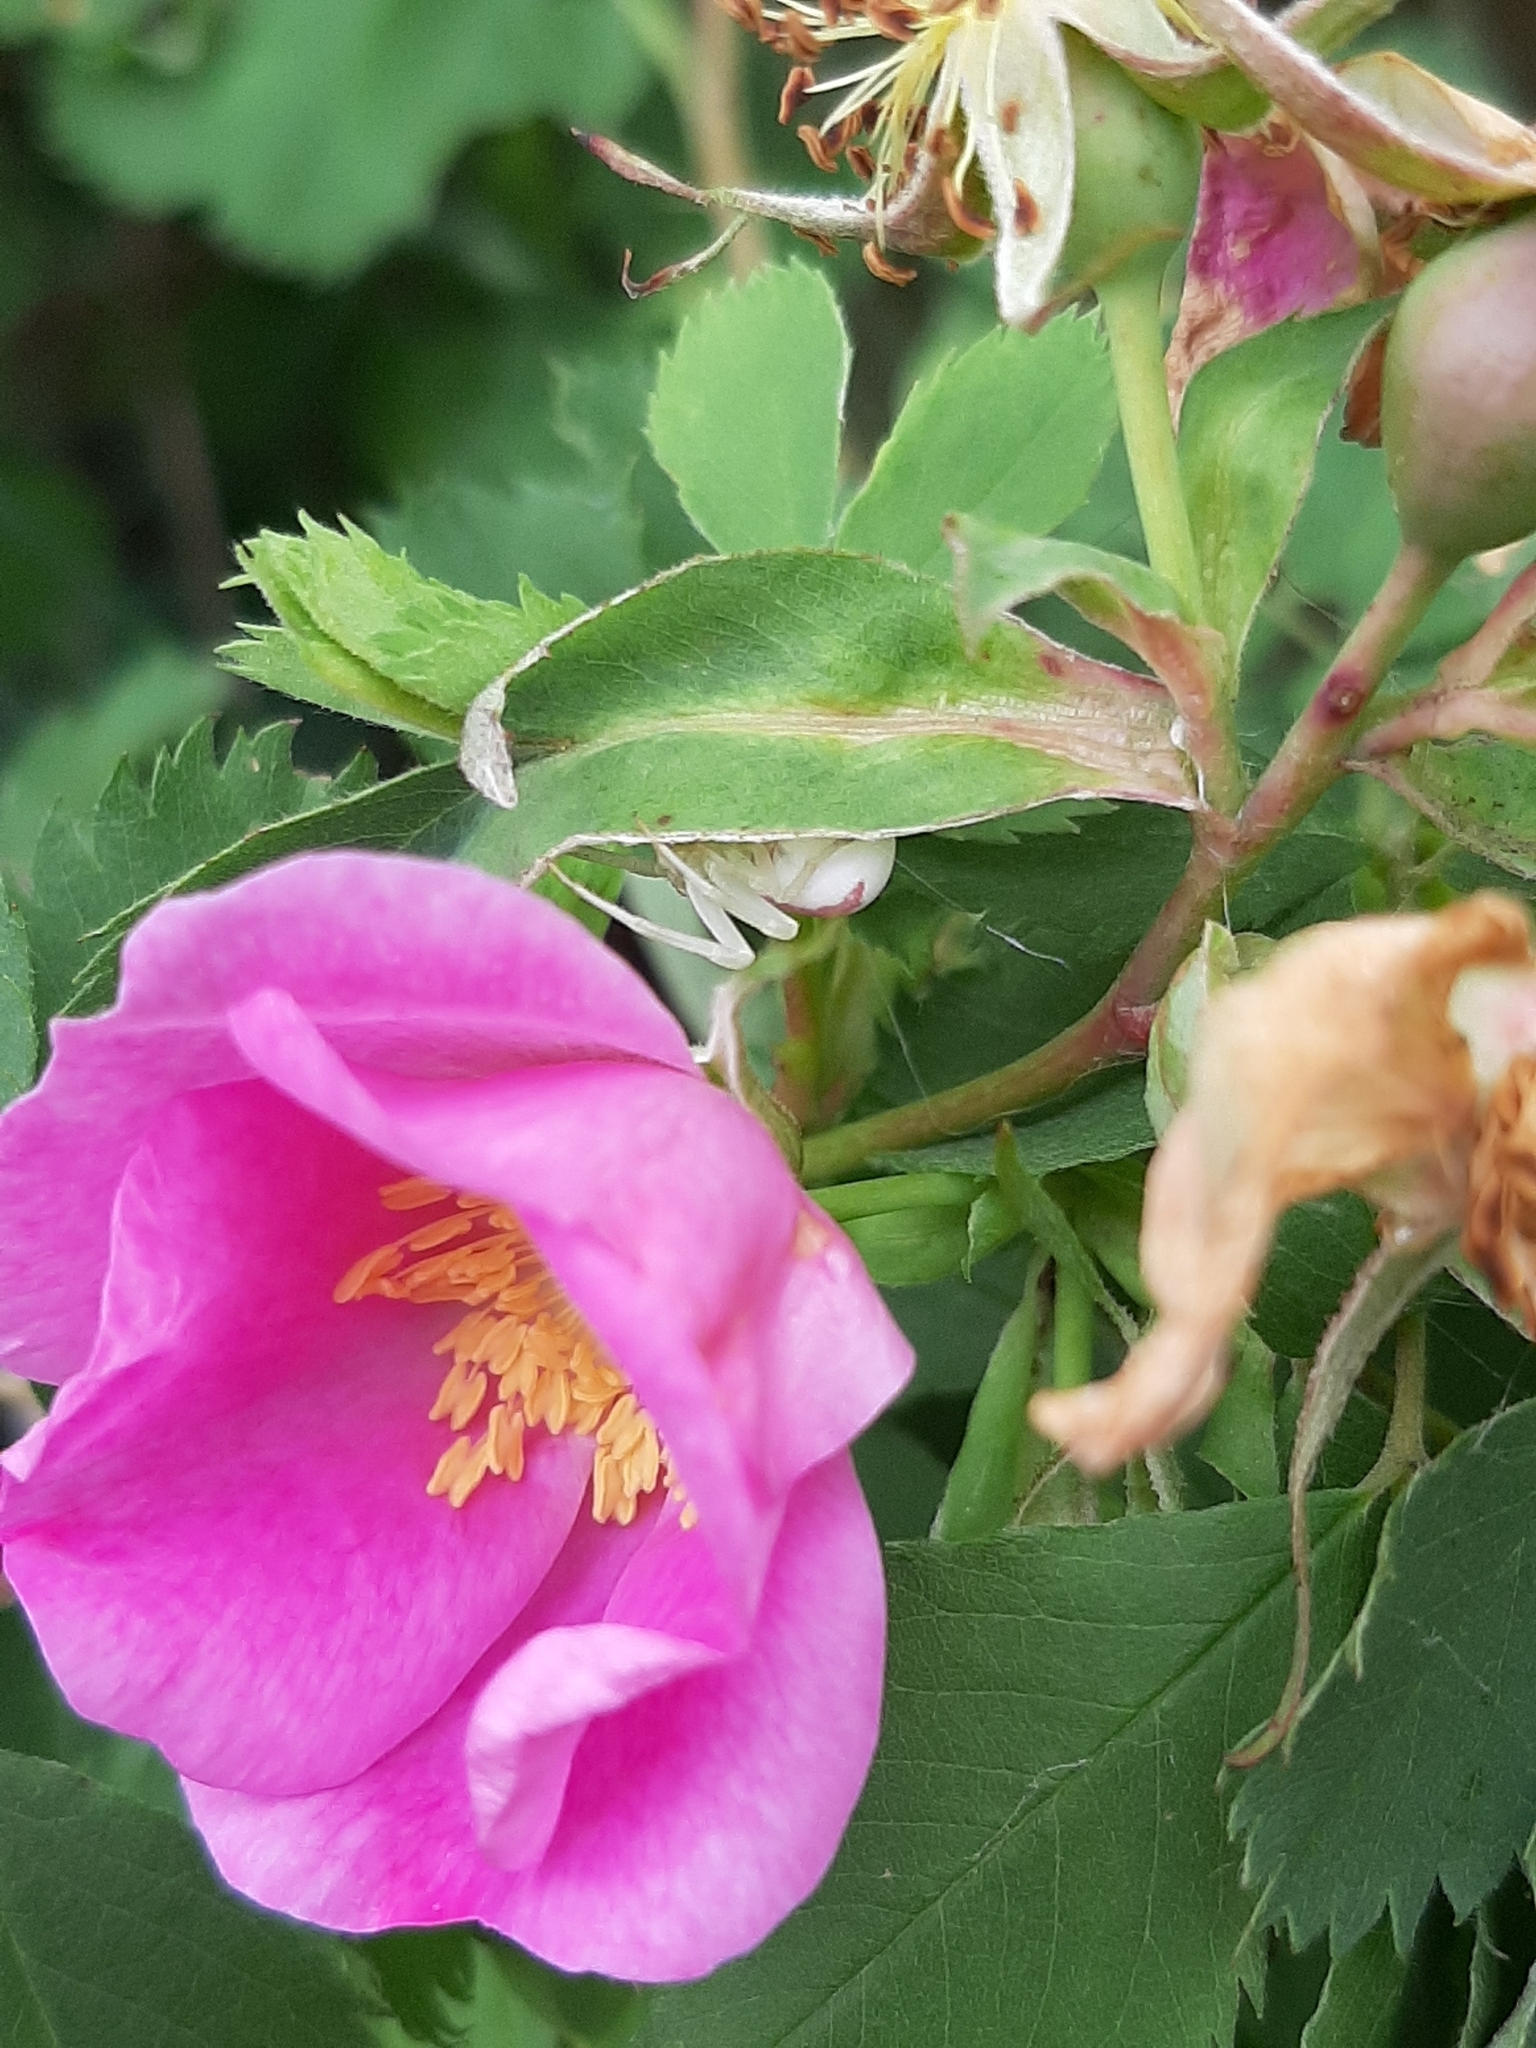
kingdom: Animalia
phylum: Arthropoda
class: Arachnida
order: Araneae
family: Thomisidae
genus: Misumena
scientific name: Misumena vatia
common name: Goldenrod crab spider
